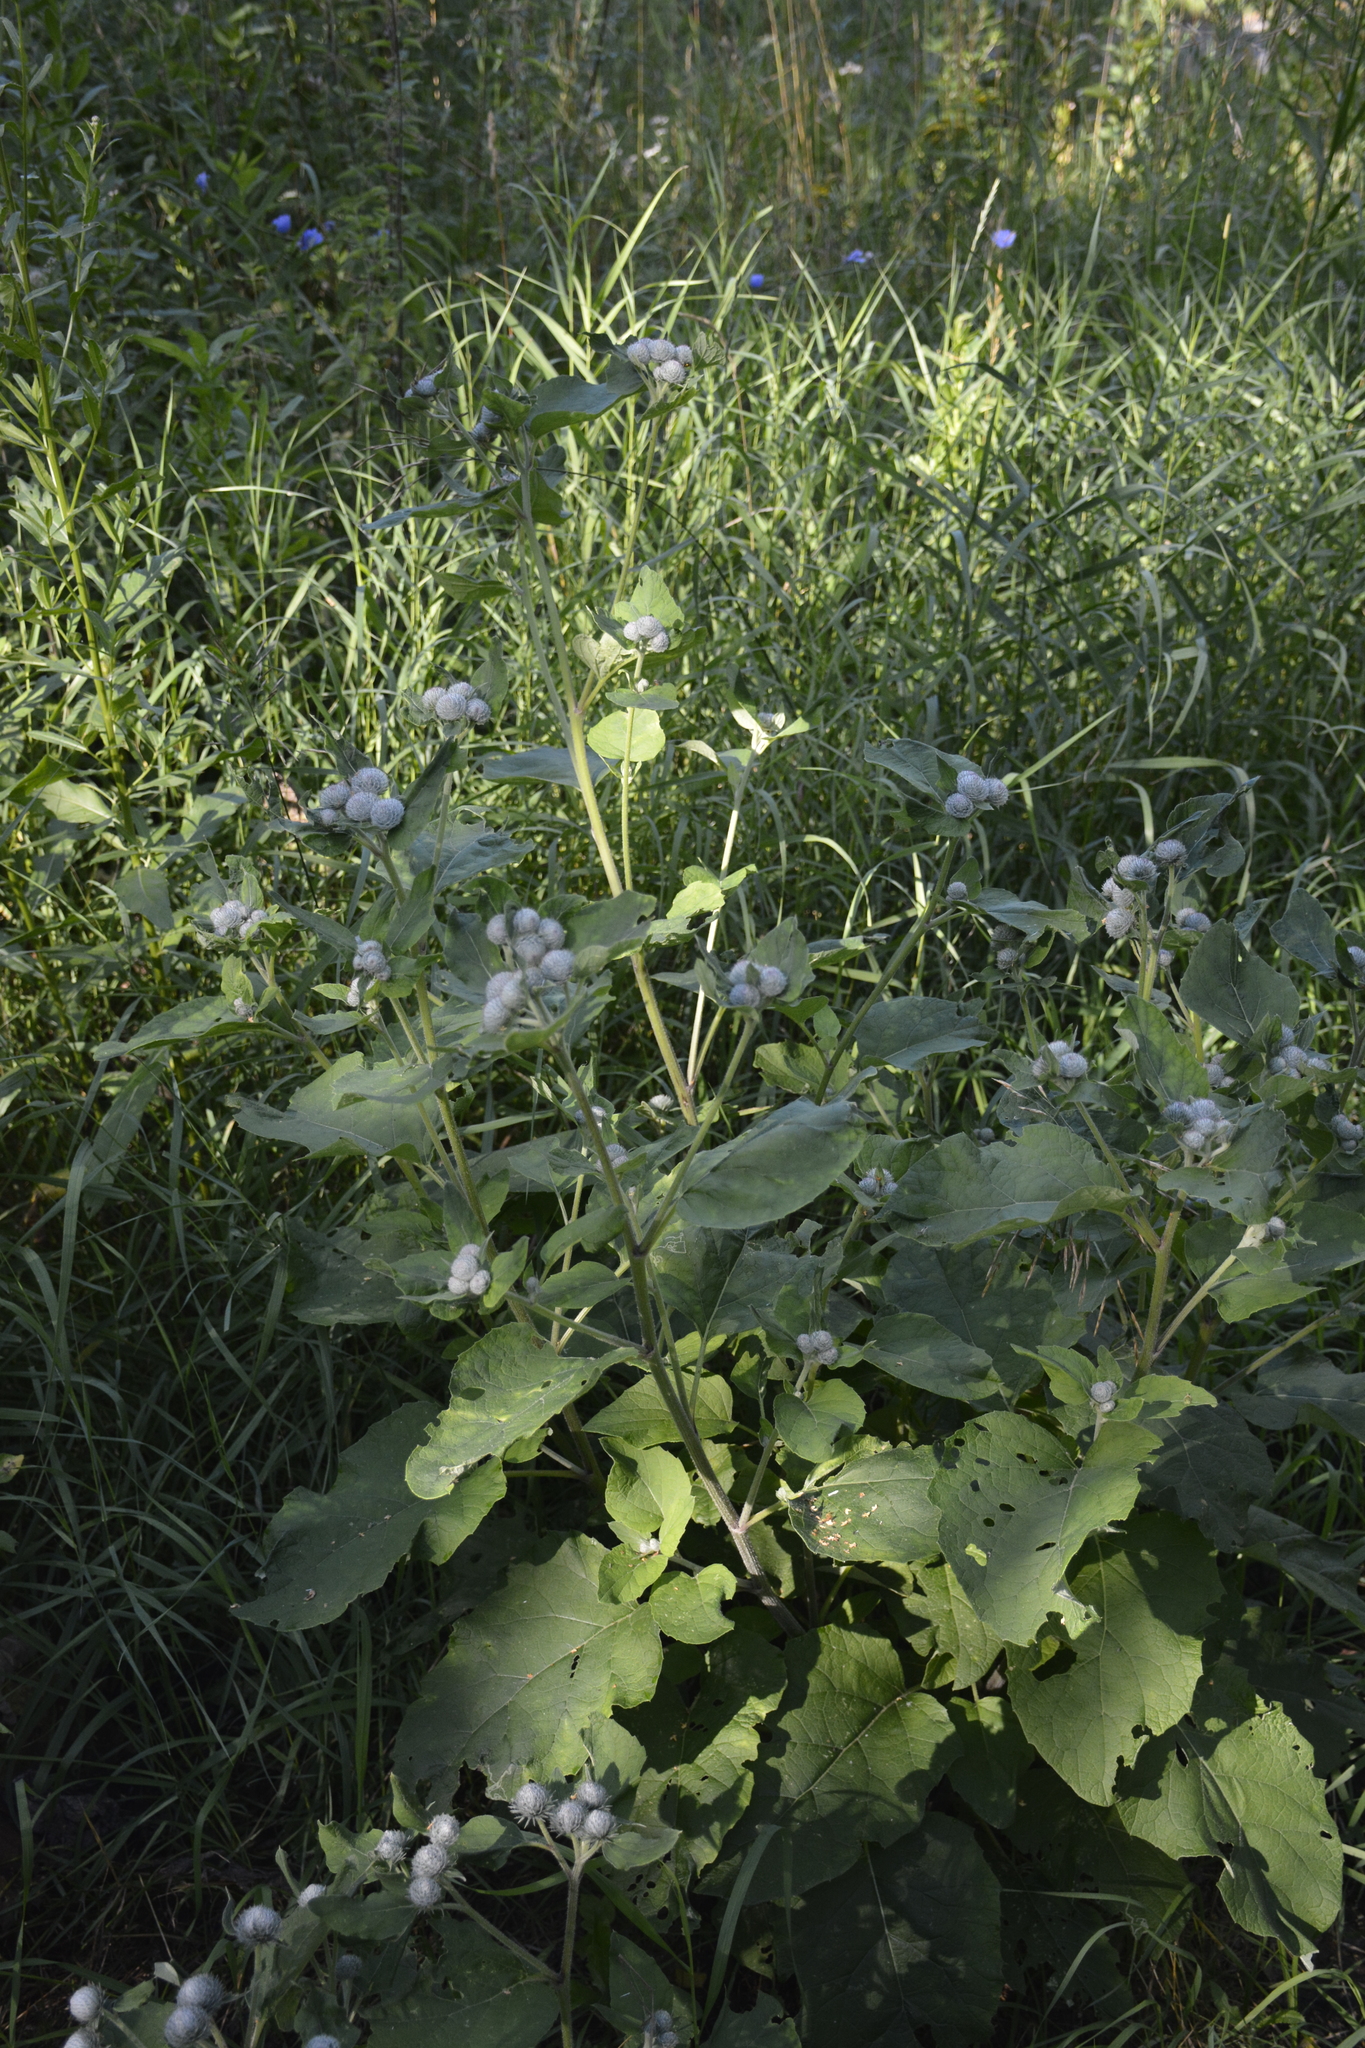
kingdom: Plantae
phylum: Tracheophyta
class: Magnoliopsida
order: Asterales
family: Asteraceae
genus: Arctium
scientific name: Arctium tomentosum
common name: Woolly burdock
